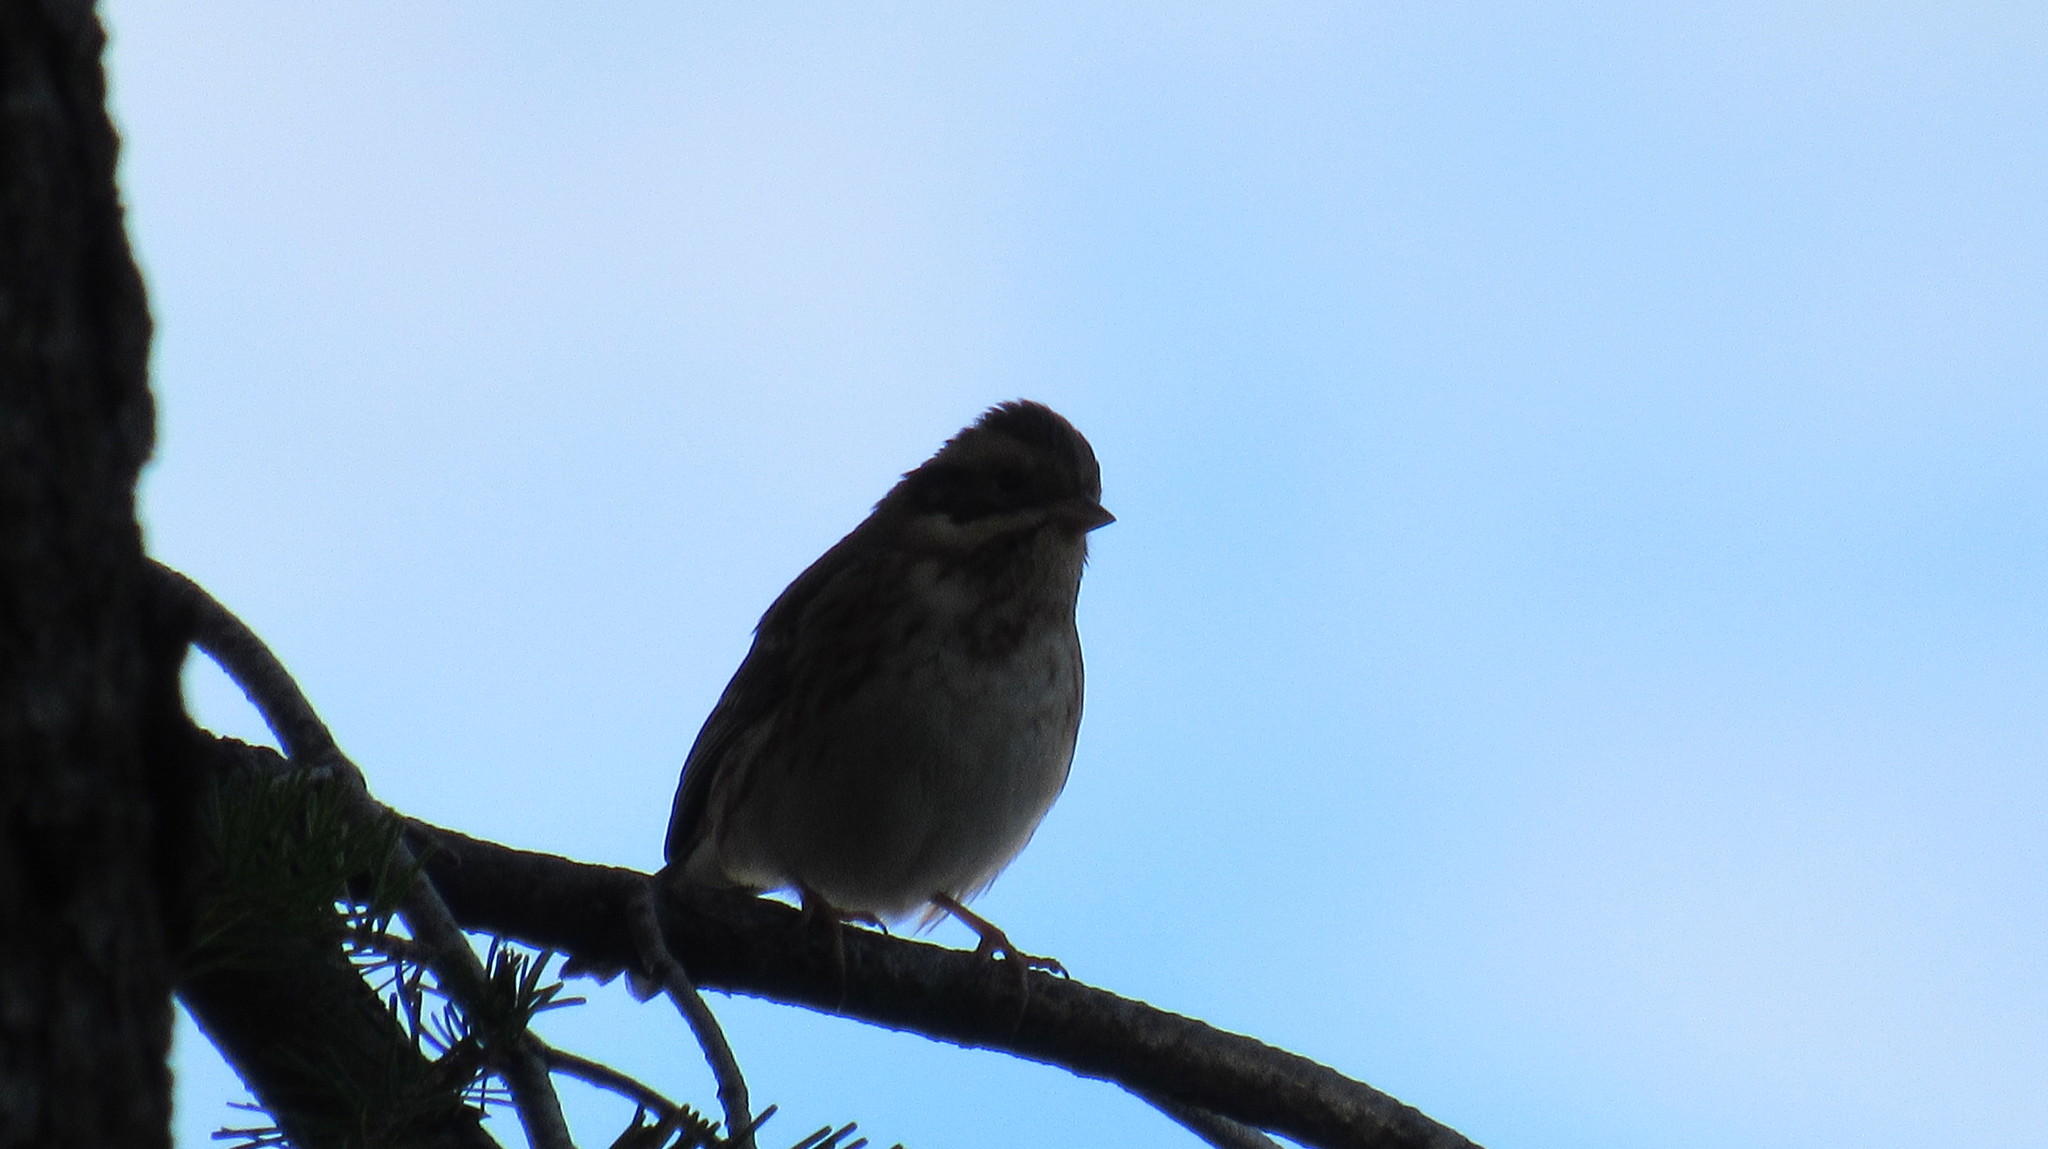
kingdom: Animalia
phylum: Chordata
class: Aves
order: Passeriformes
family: Emberizidae
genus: Emberiza
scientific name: Emberiza rustica
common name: Rustic bunting
